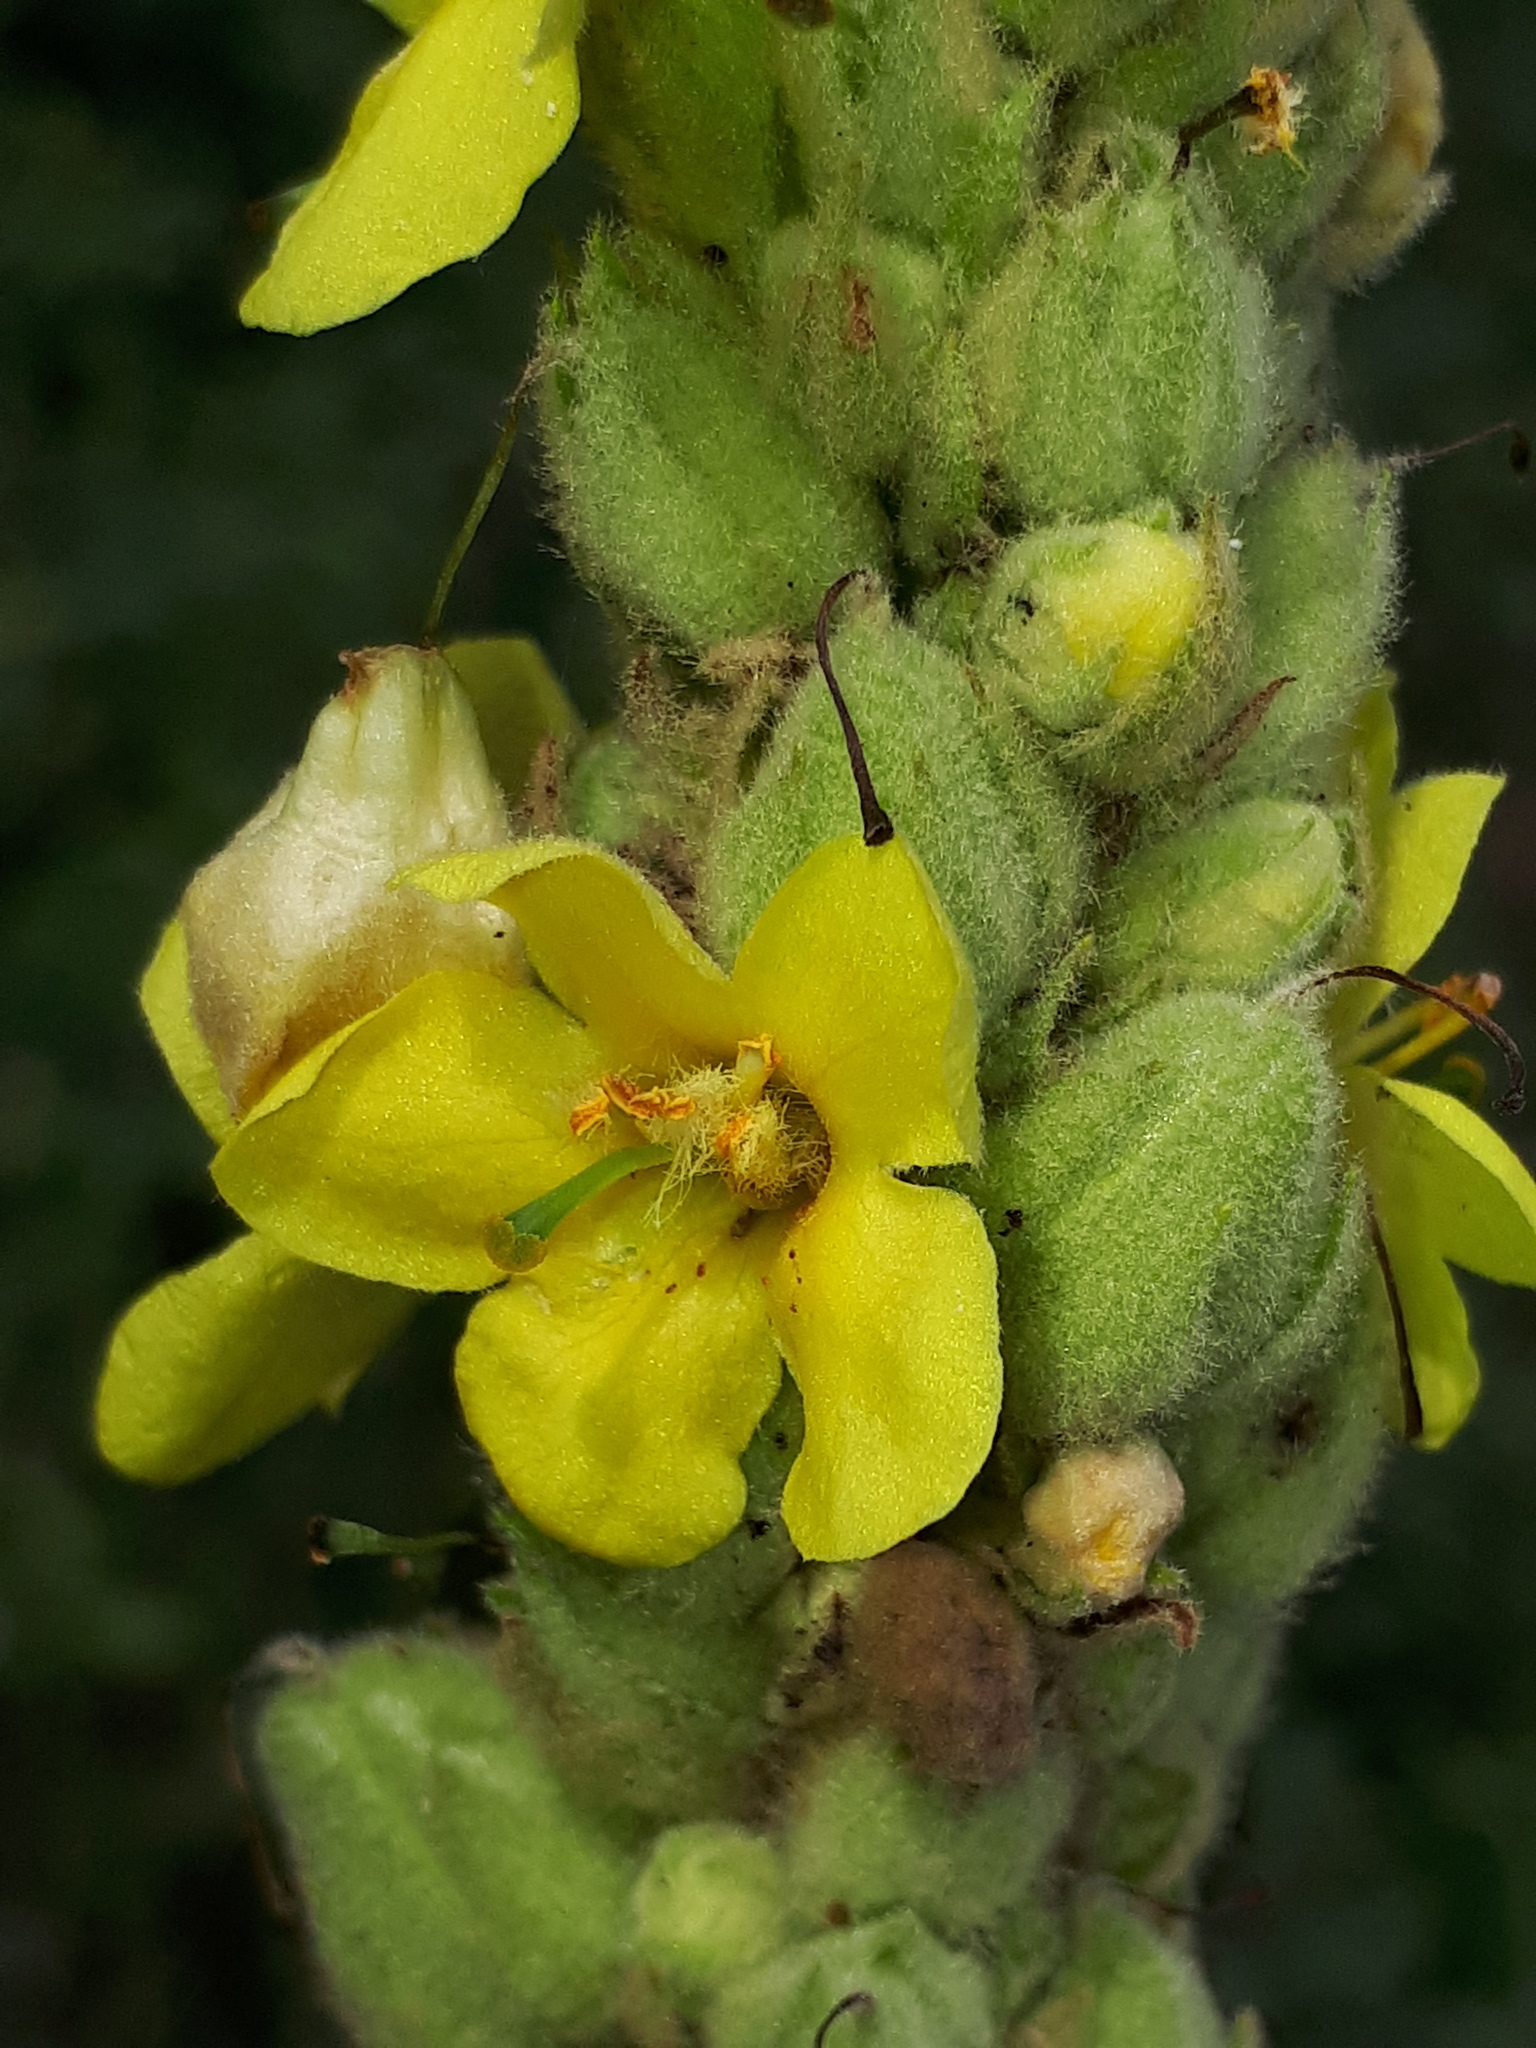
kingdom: Plantae
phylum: Tracheophyta
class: Magnoliopsida
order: Lamiales
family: Scrophulariaceae
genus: Verbascum
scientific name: Verbascum thapsus
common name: Common mullein
